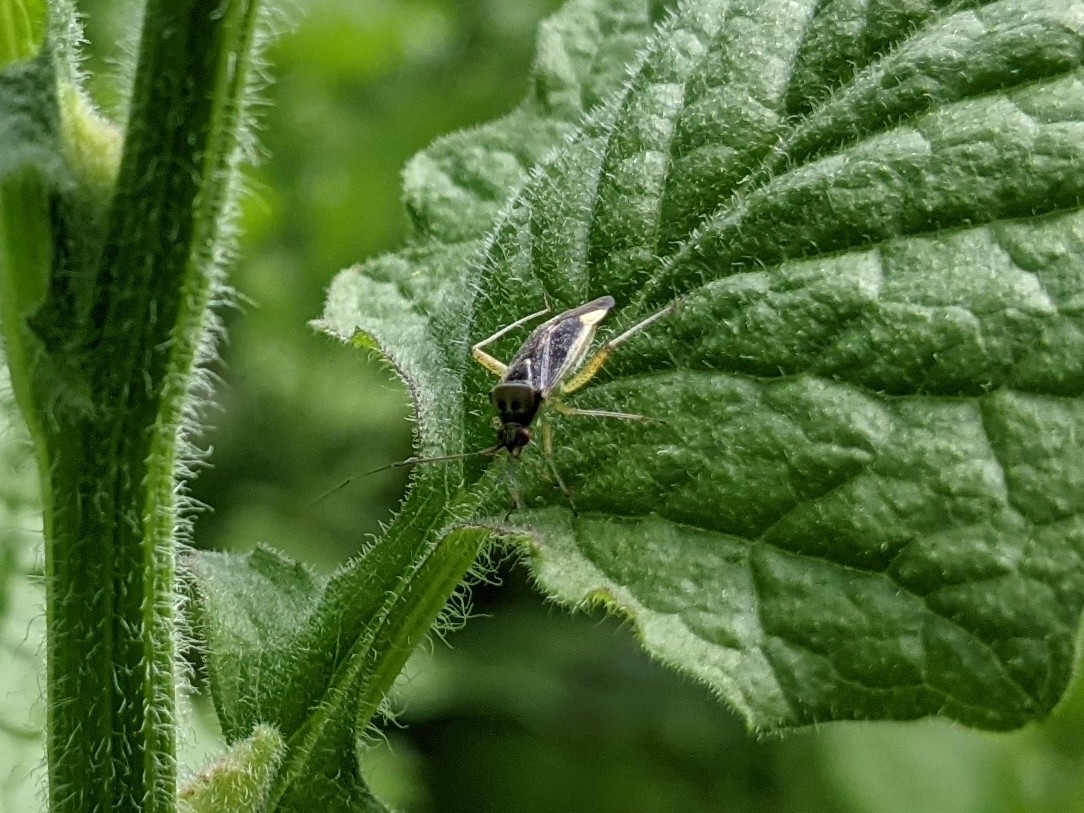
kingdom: Animalia
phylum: Arthropoda
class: Insecta
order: Hemiptera
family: Miridae
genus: Closterotomus
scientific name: Closterotomus trivialis
